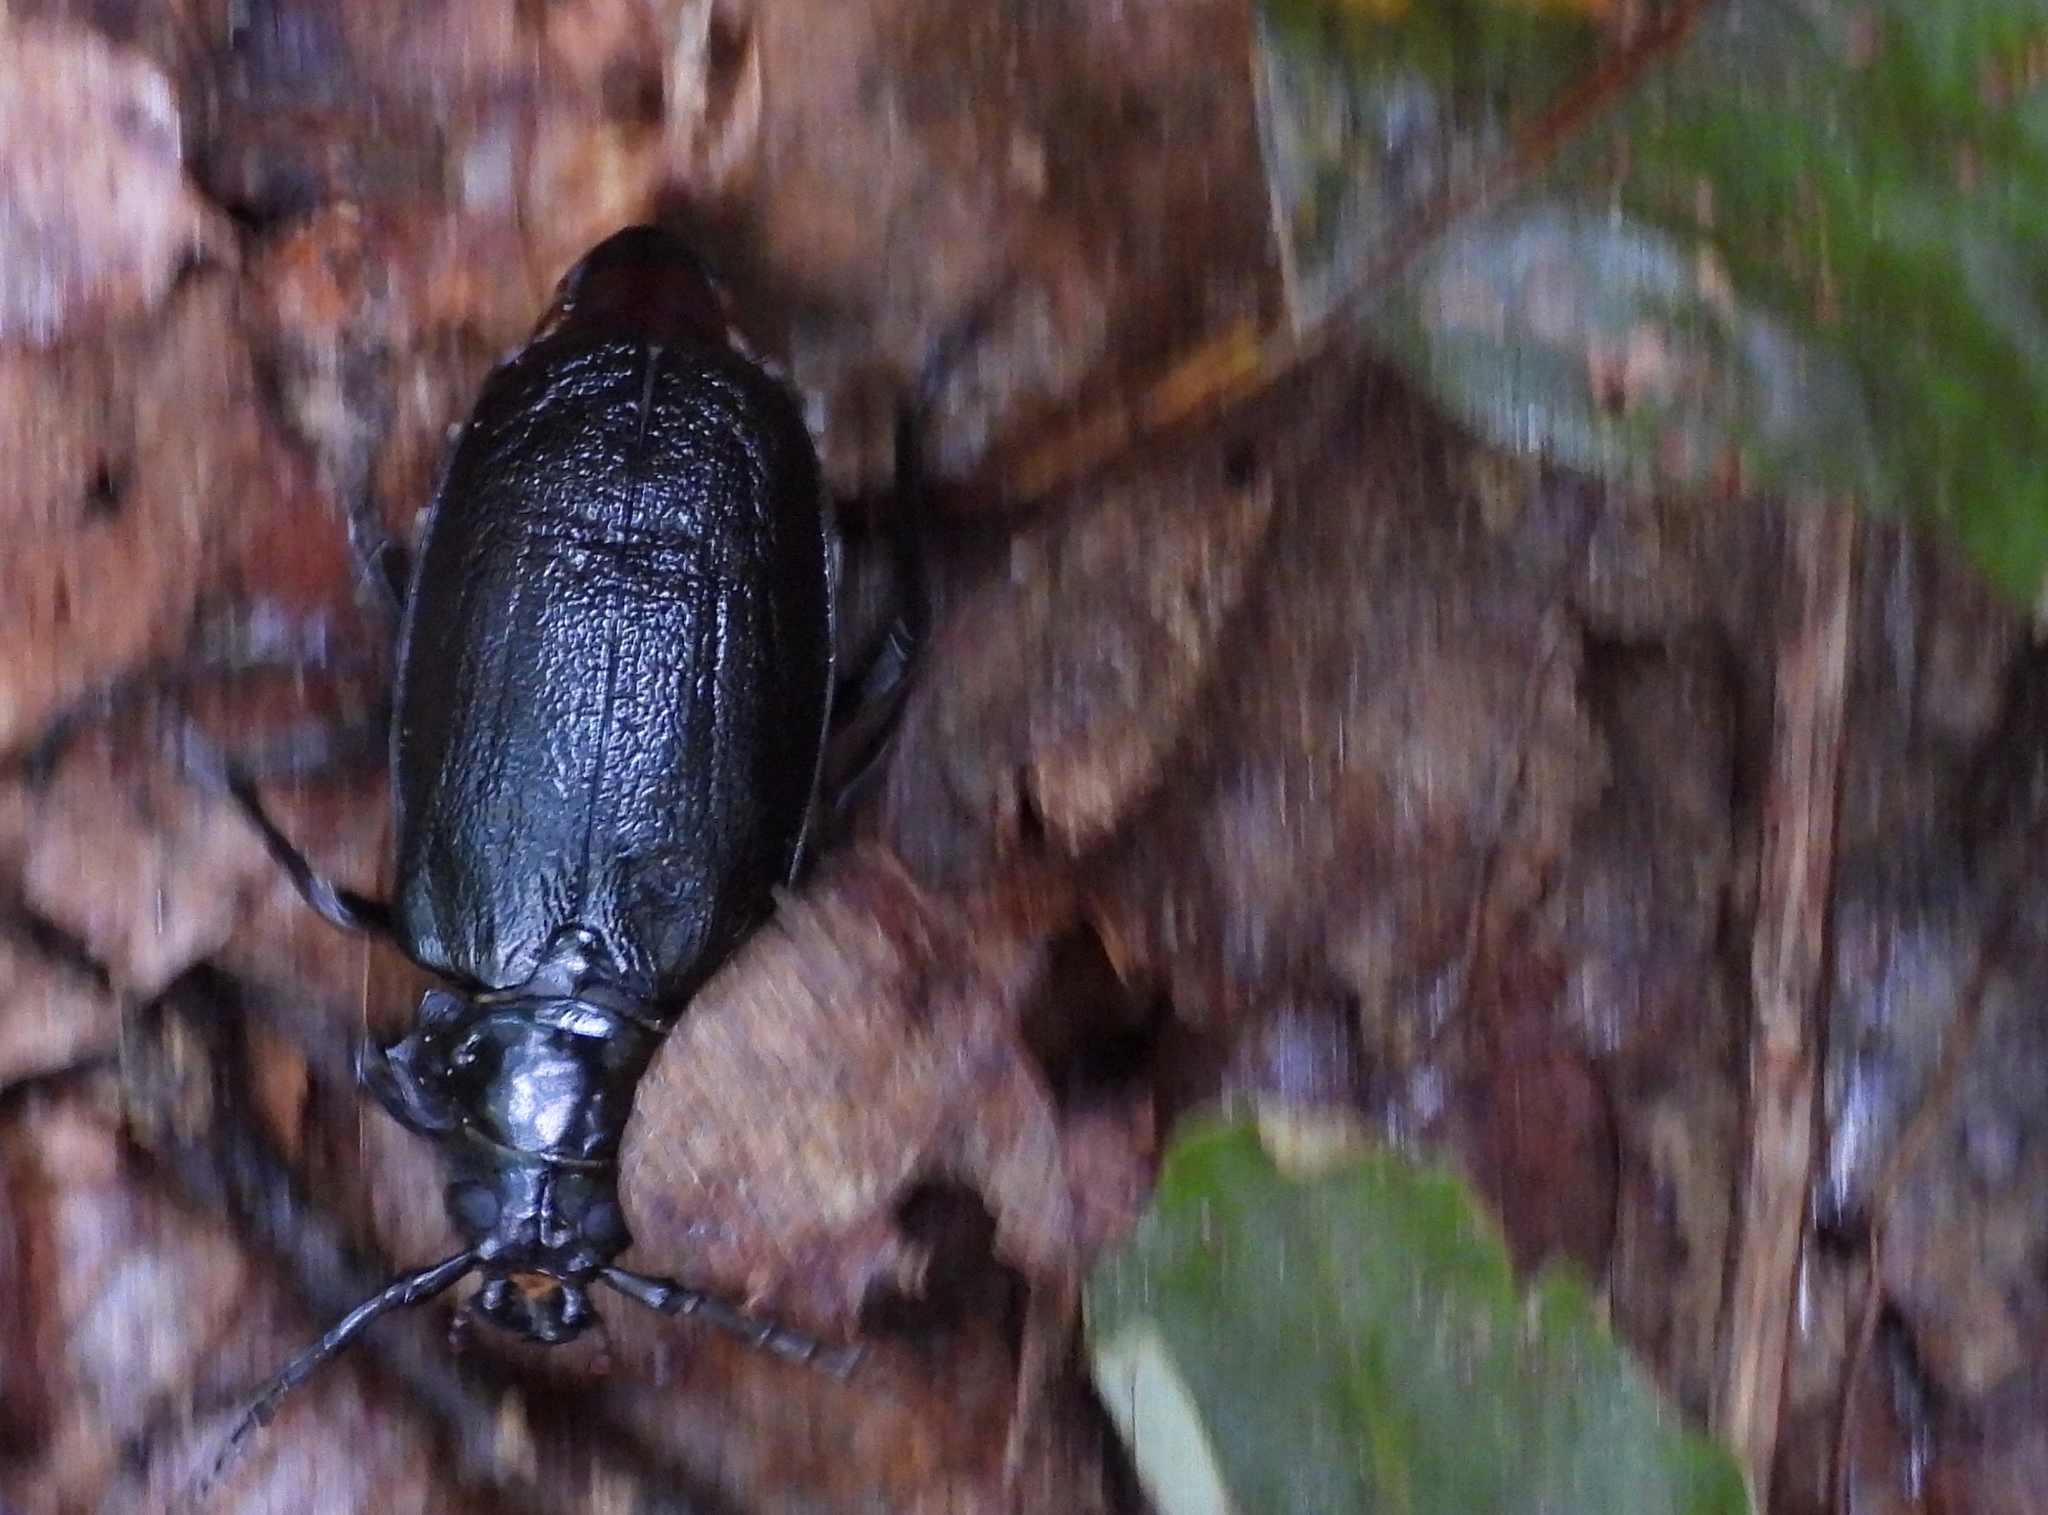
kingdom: Animalia
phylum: Arthropoda
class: Insecta
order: Coleoptera
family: Cerambycidae
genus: Prionus
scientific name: Prionus laticollis
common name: Broad necked prionus
